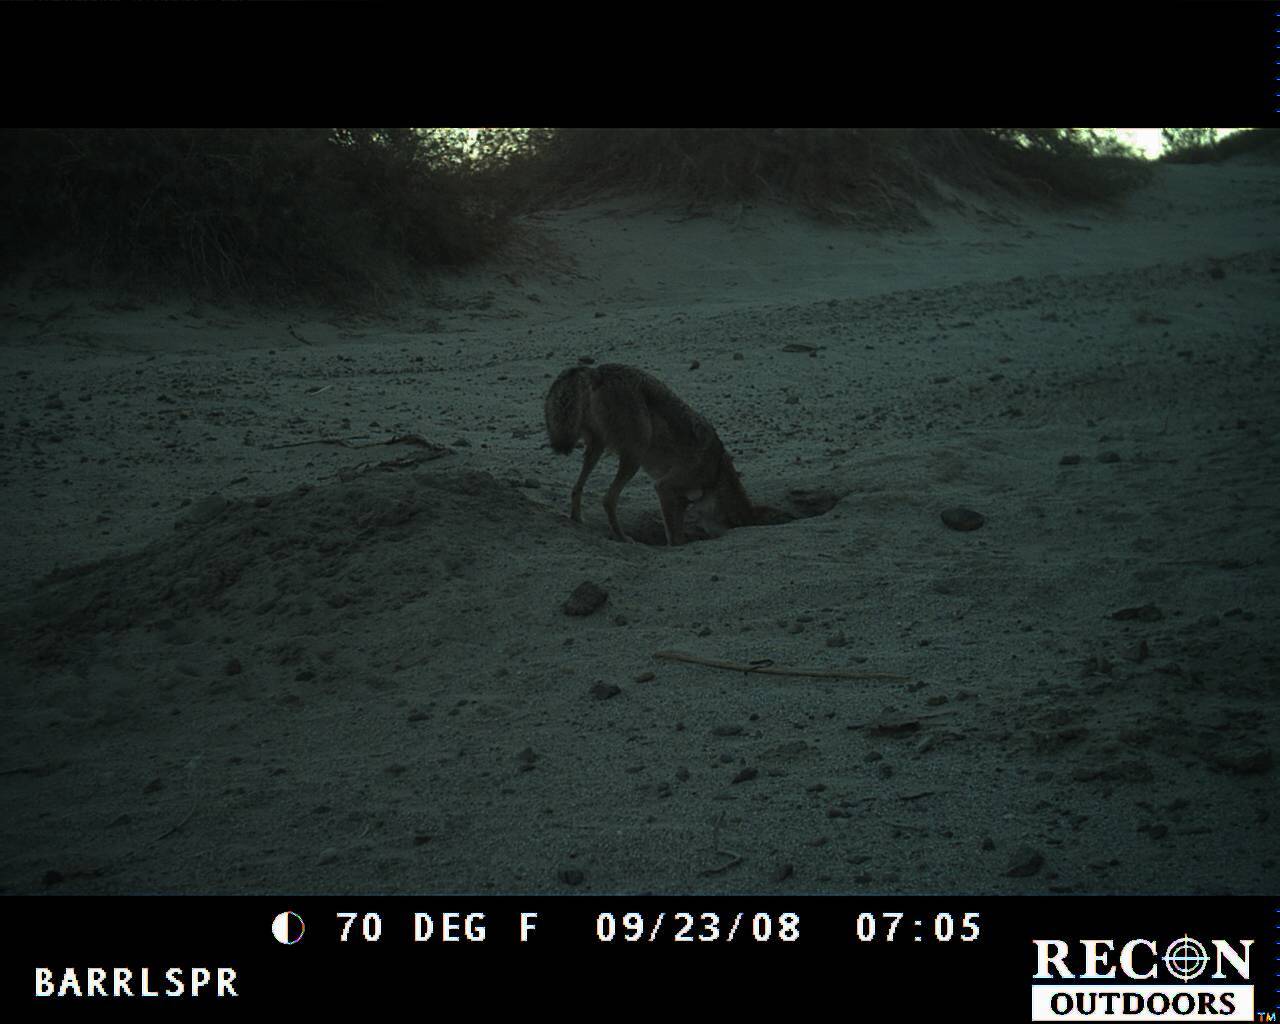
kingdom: Animalia
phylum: Chordata
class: Mammalia
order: Carnivora
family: Canidae
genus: Canis
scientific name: Canis latrans
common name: Coyote
